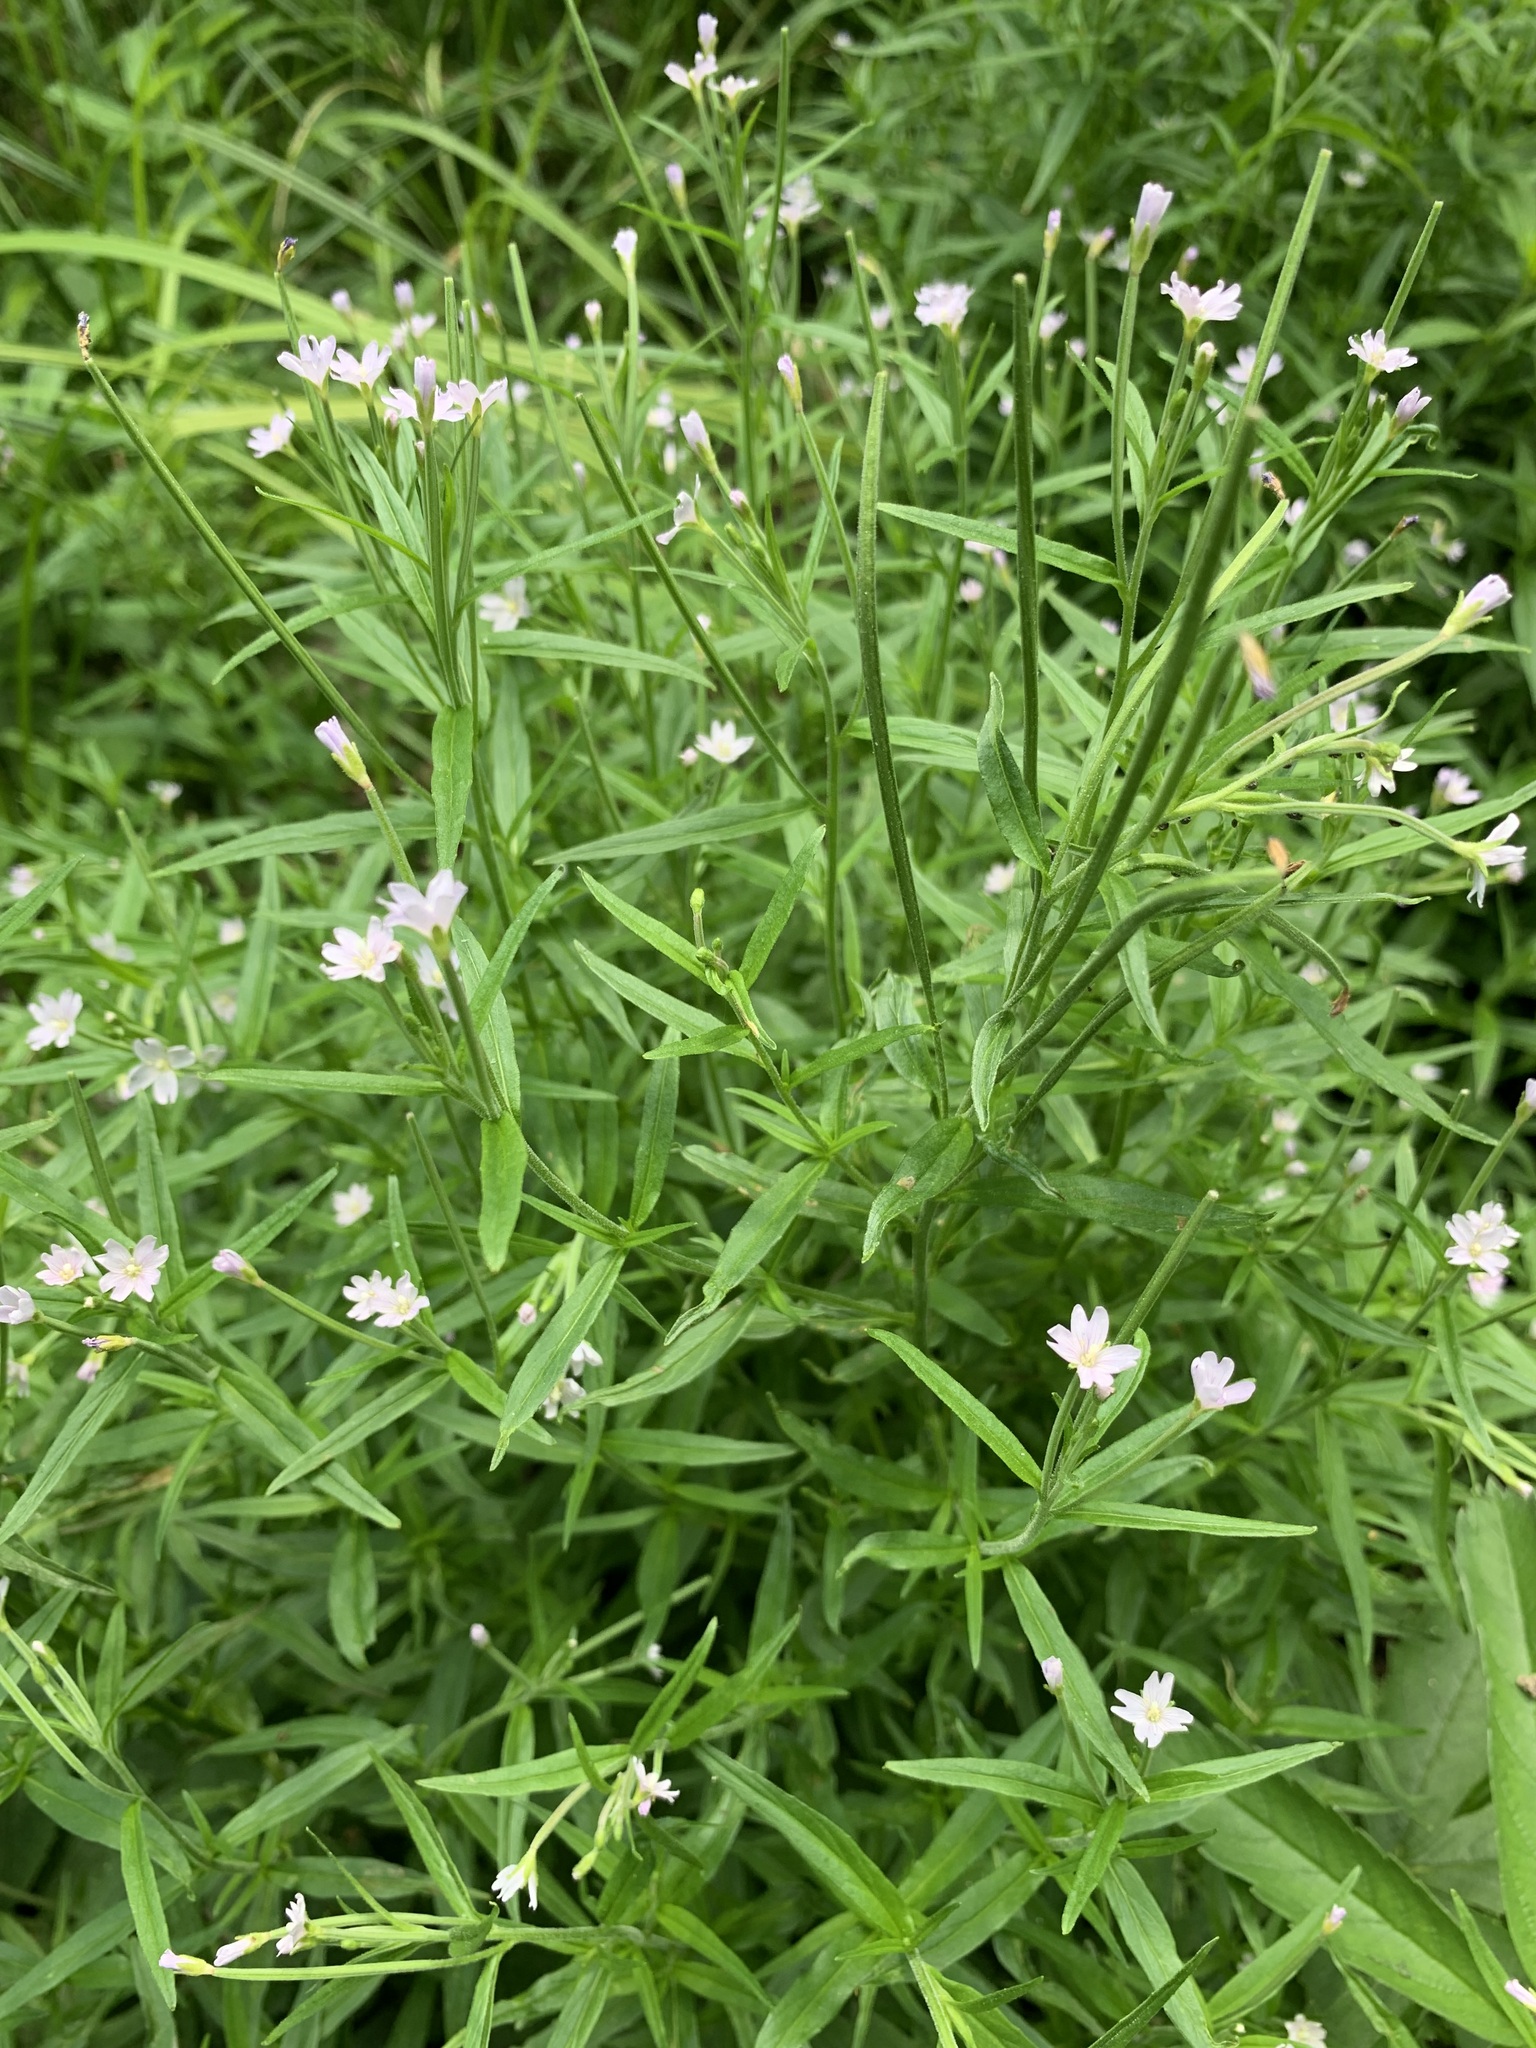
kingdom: Plantae
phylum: Tracheophyta
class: Magnoliopsida
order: Myrtales
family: Onagraceae
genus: Epilobium
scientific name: Epilobium palustre
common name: Marsh willowherb
